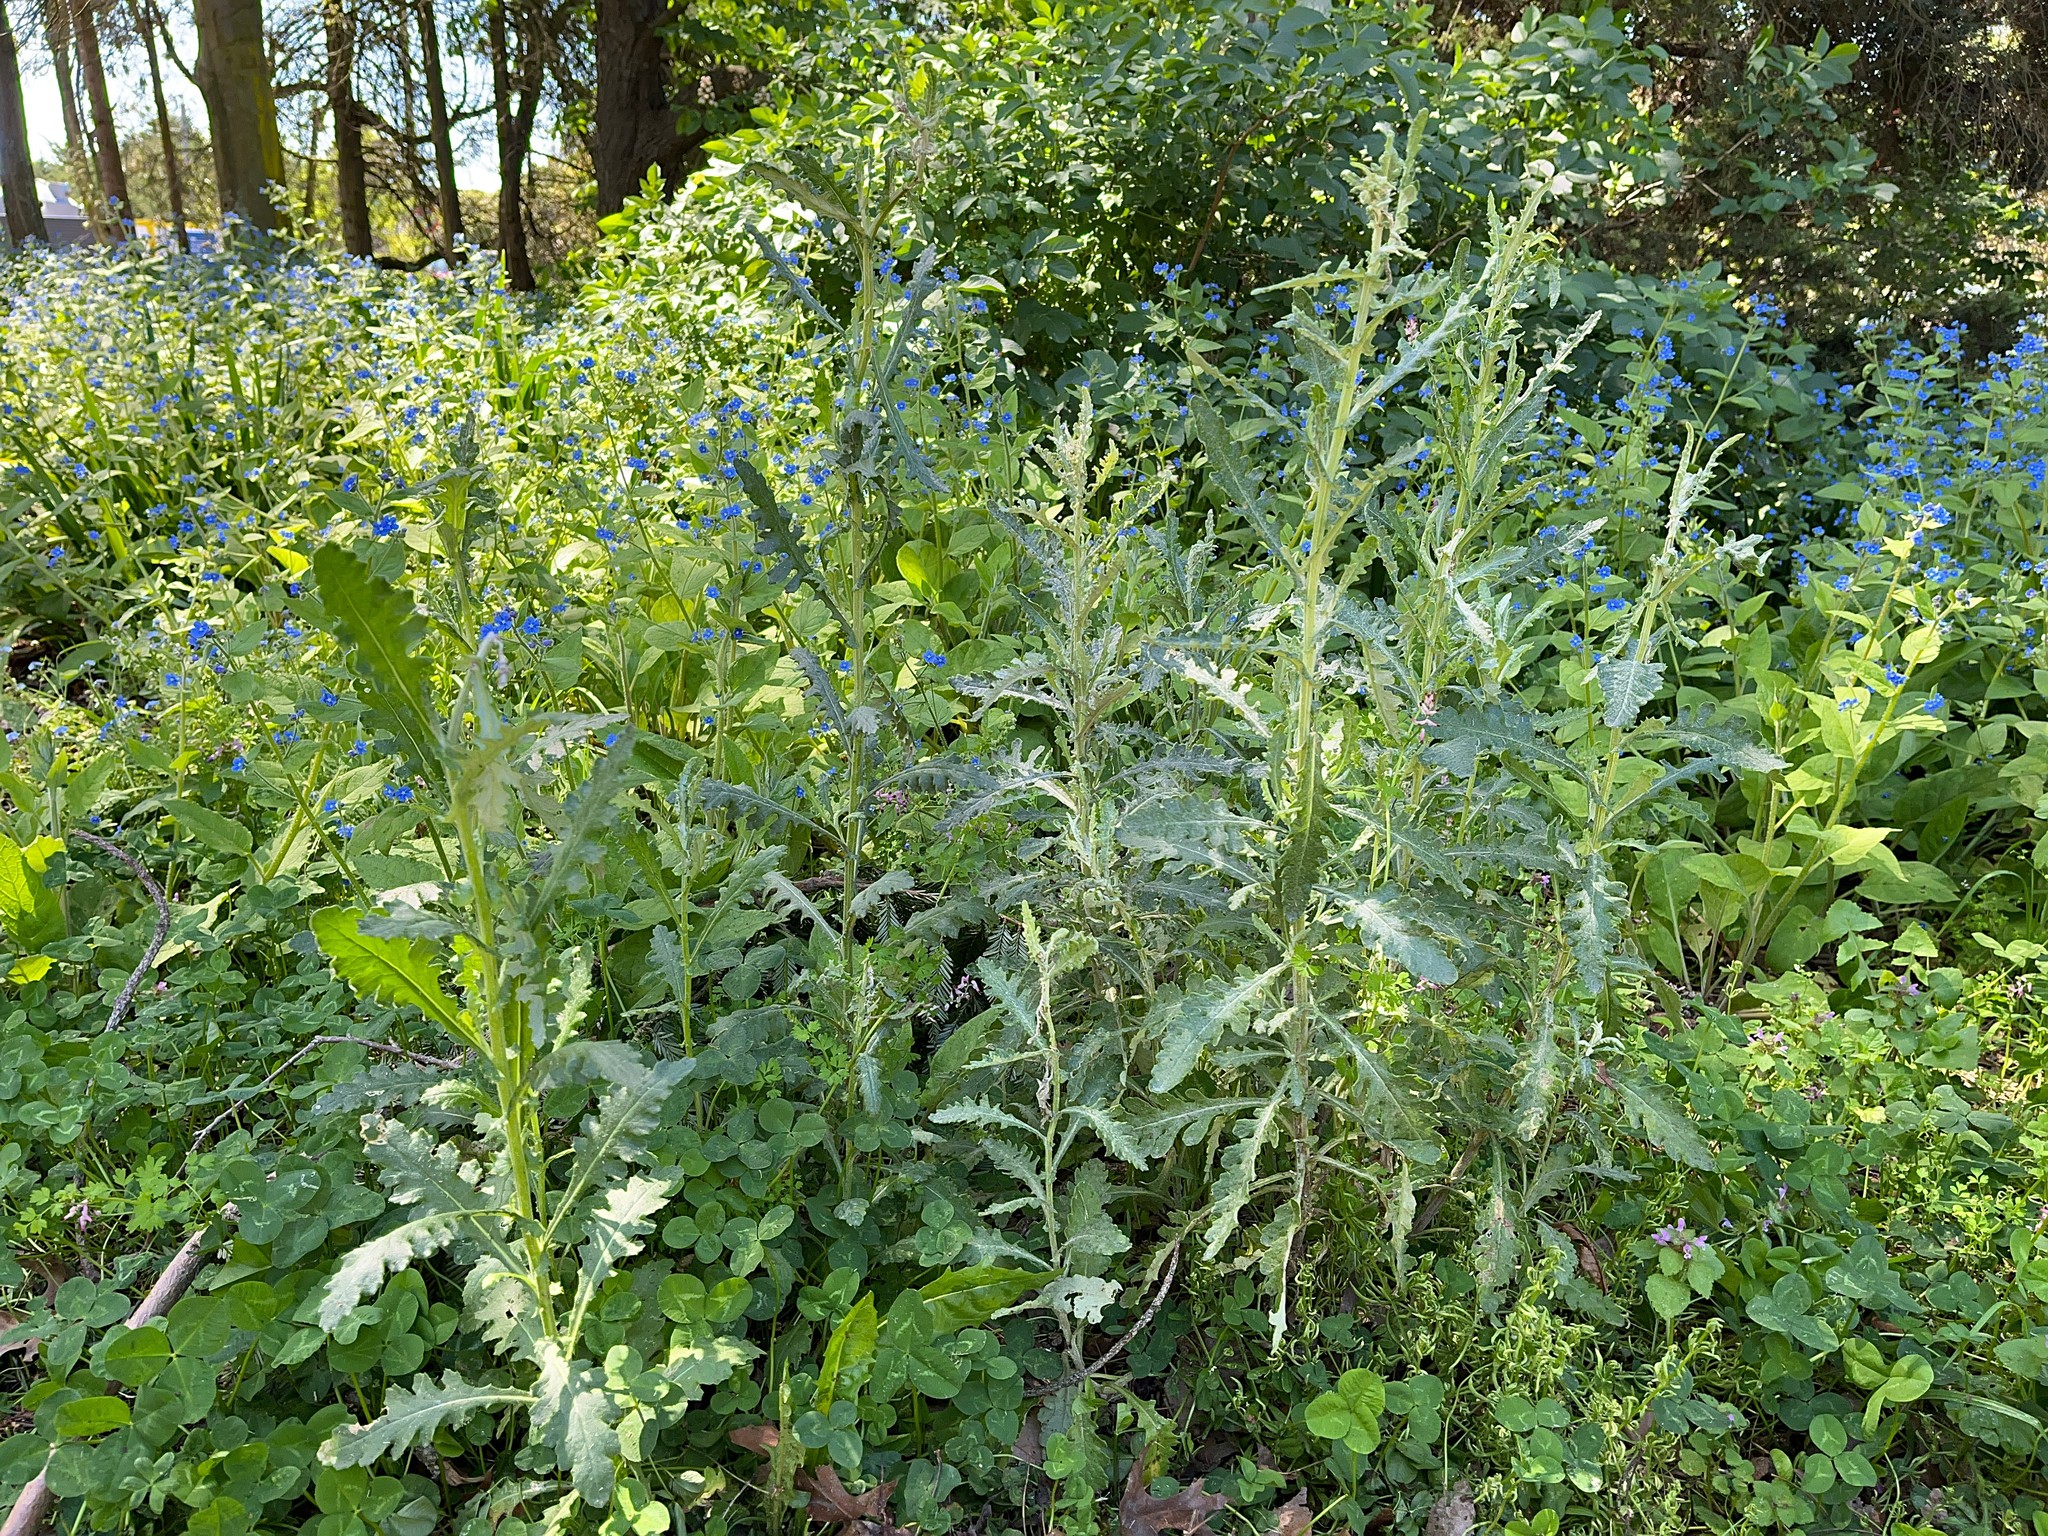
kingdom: Plantae
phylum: Tracheophyta
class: Magnoliopsida
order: Asterales
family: Asteraceae
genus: Senecio
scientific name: Senecio glomeratus
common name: Cutleaf burnweed
